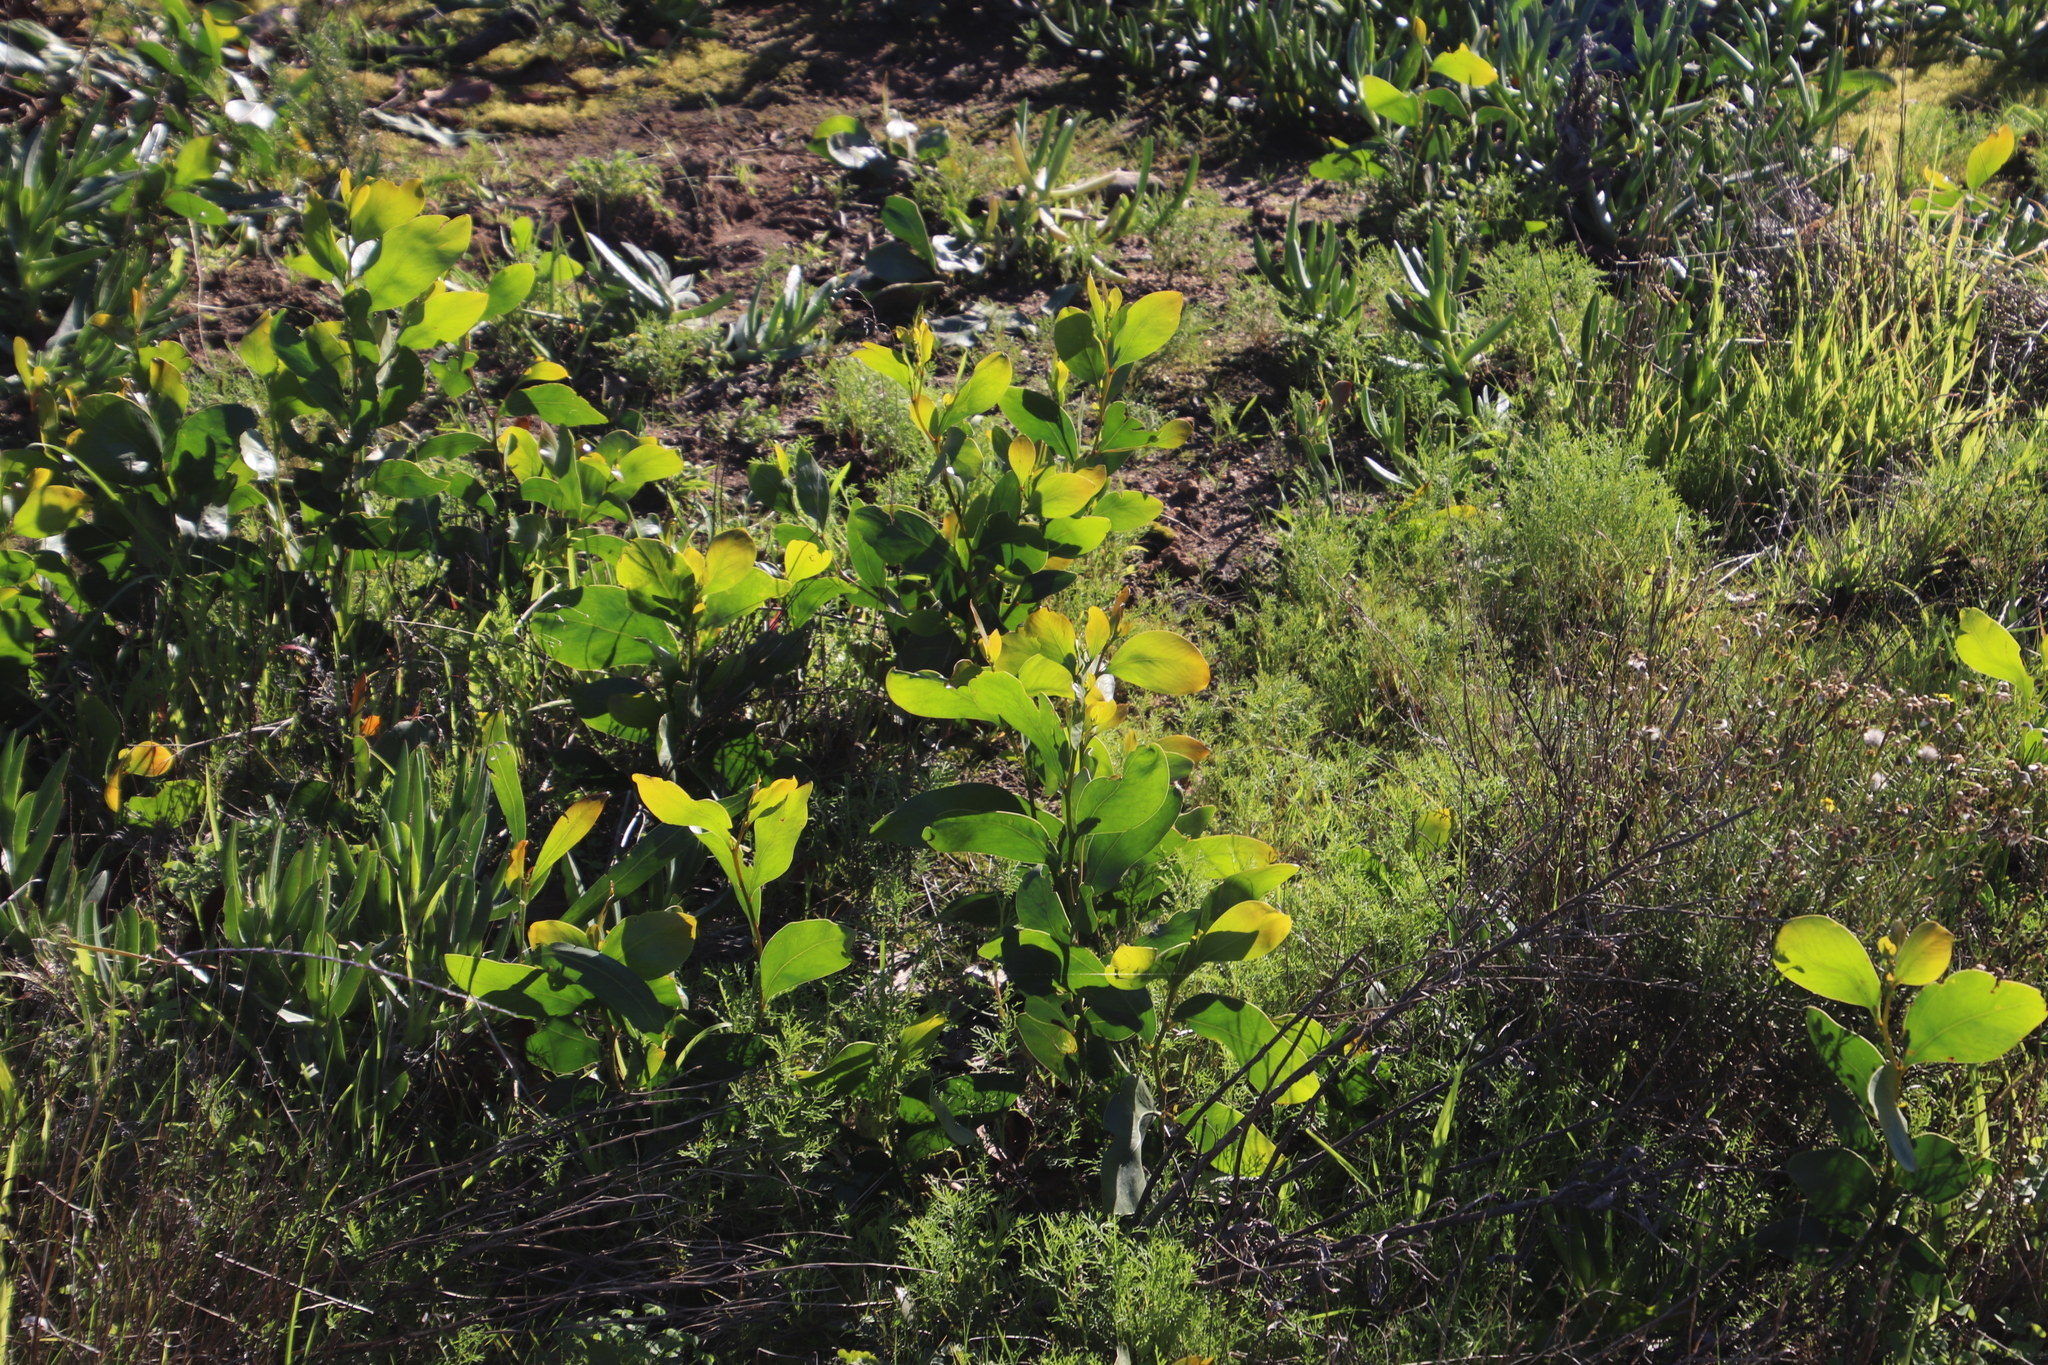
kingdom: Plantae
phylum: Tracheophyta
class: Magnoliopsida
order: Fabales
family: Fabaceae
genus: Acacia
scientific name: Acacia pycnantha
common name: Golden wattle
